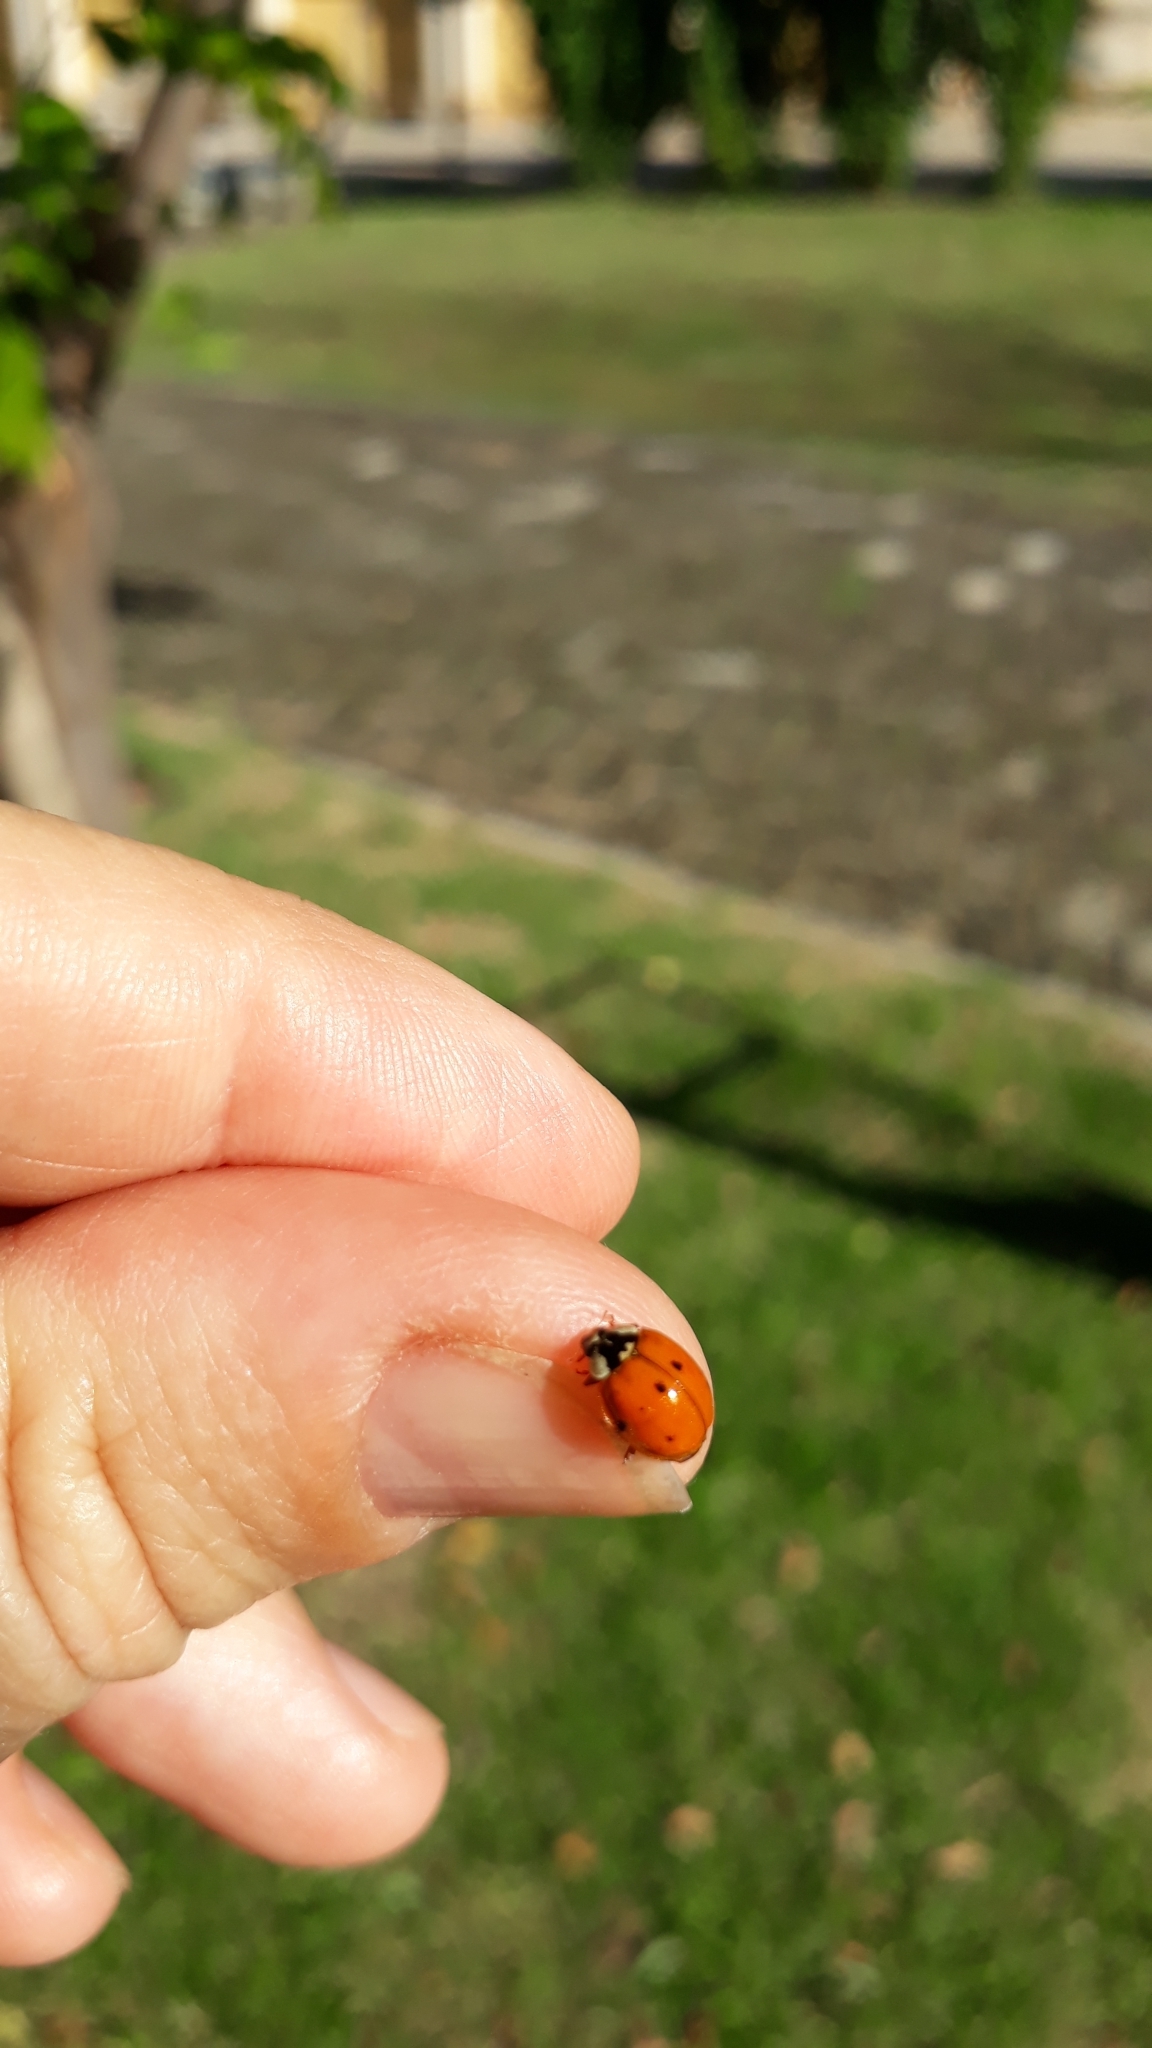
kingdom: Animalia
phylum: Arthropoda
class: Insecta
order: Coleoptera
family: Coccinellidae
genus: Harmonia
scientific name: Harmonia axyridis
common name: Harlequin ladybird
